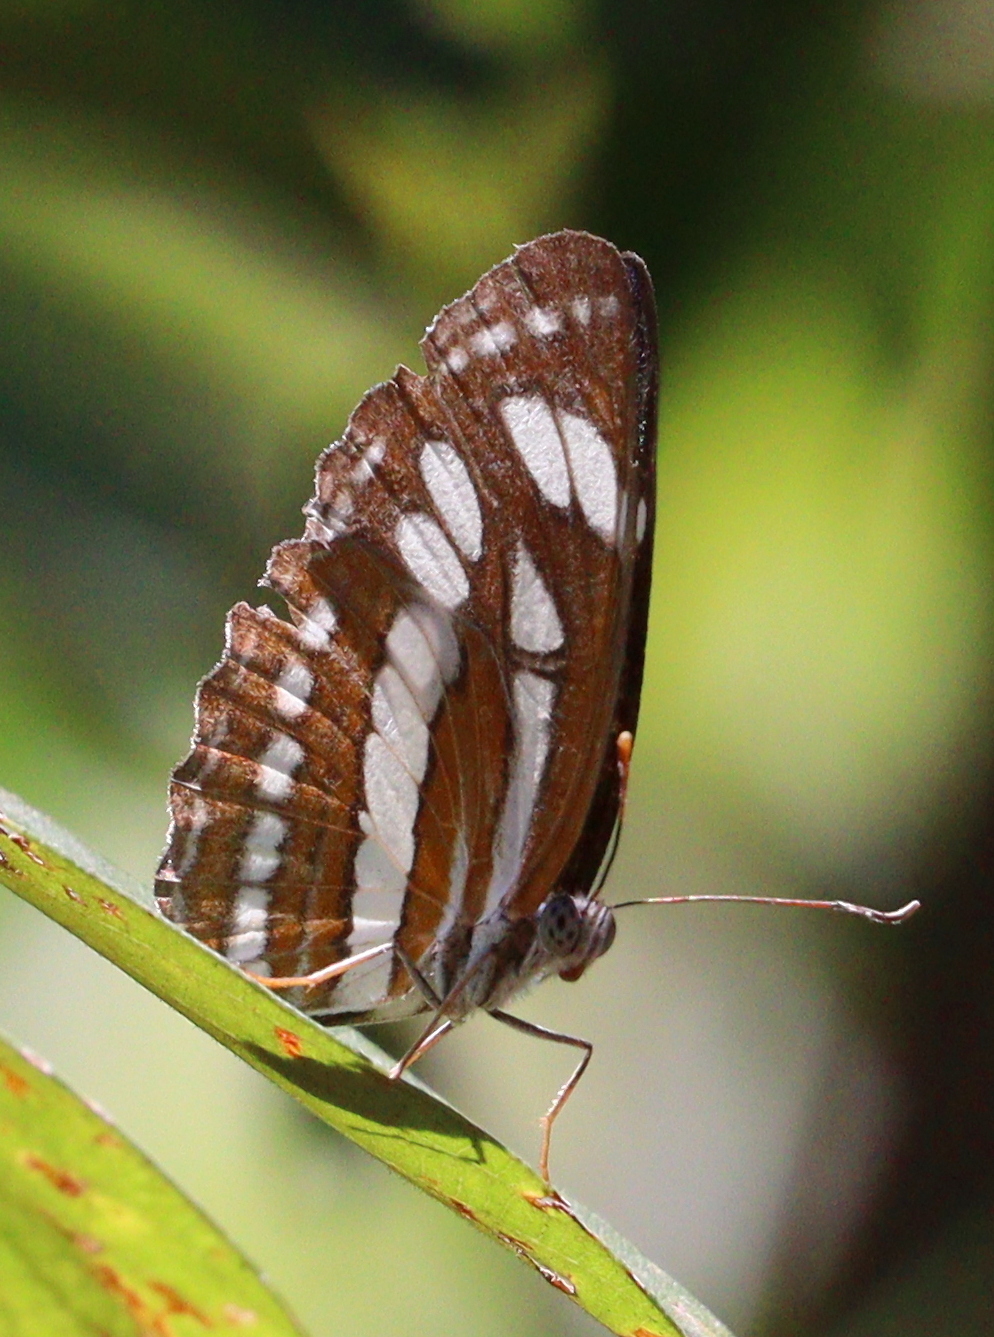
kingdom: Animalia
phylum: Arthropoda
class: Insecta
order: Lepidoptera
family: Nymphalidae
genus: Neptis
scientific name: Neptis hylas
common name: Common sailer
